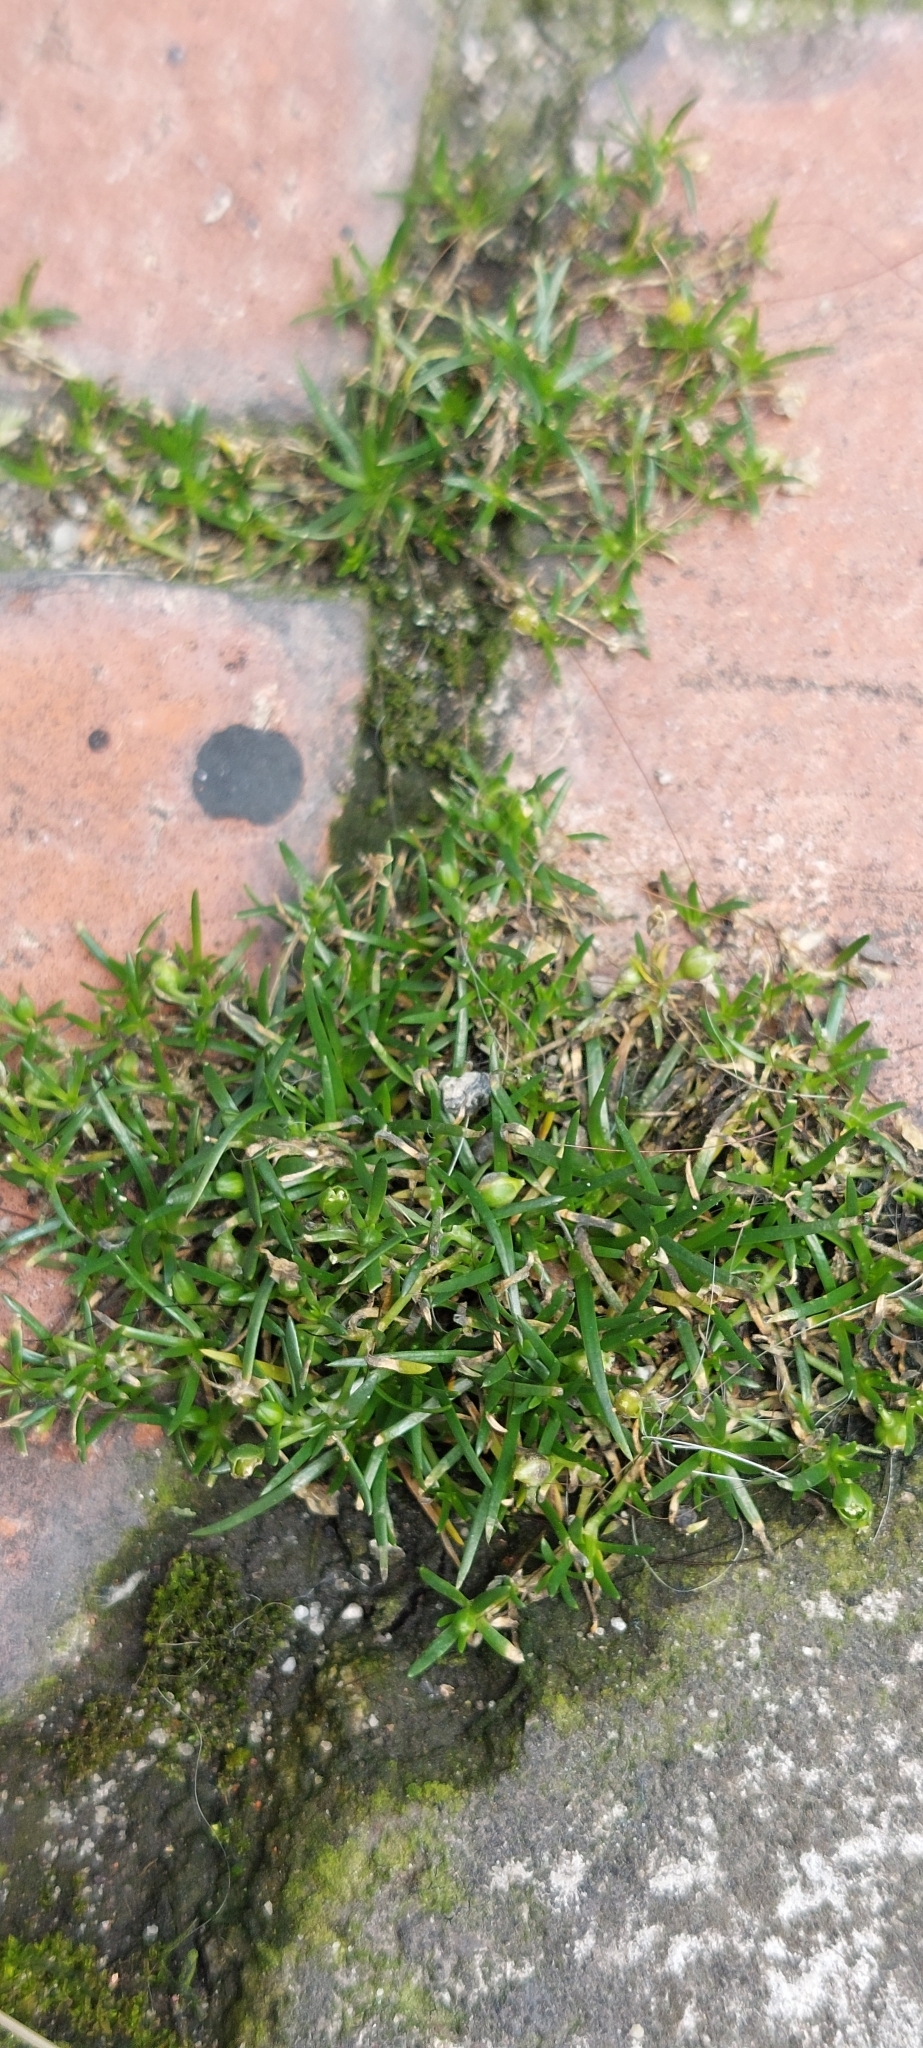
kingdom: Plantae
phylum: Tracheophyta
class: Magnoliopsida
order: Caryophyllales
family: Caryophyllaceae
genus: Sagina
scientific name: Sagina procumbens
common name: Procumbent pearlwort
